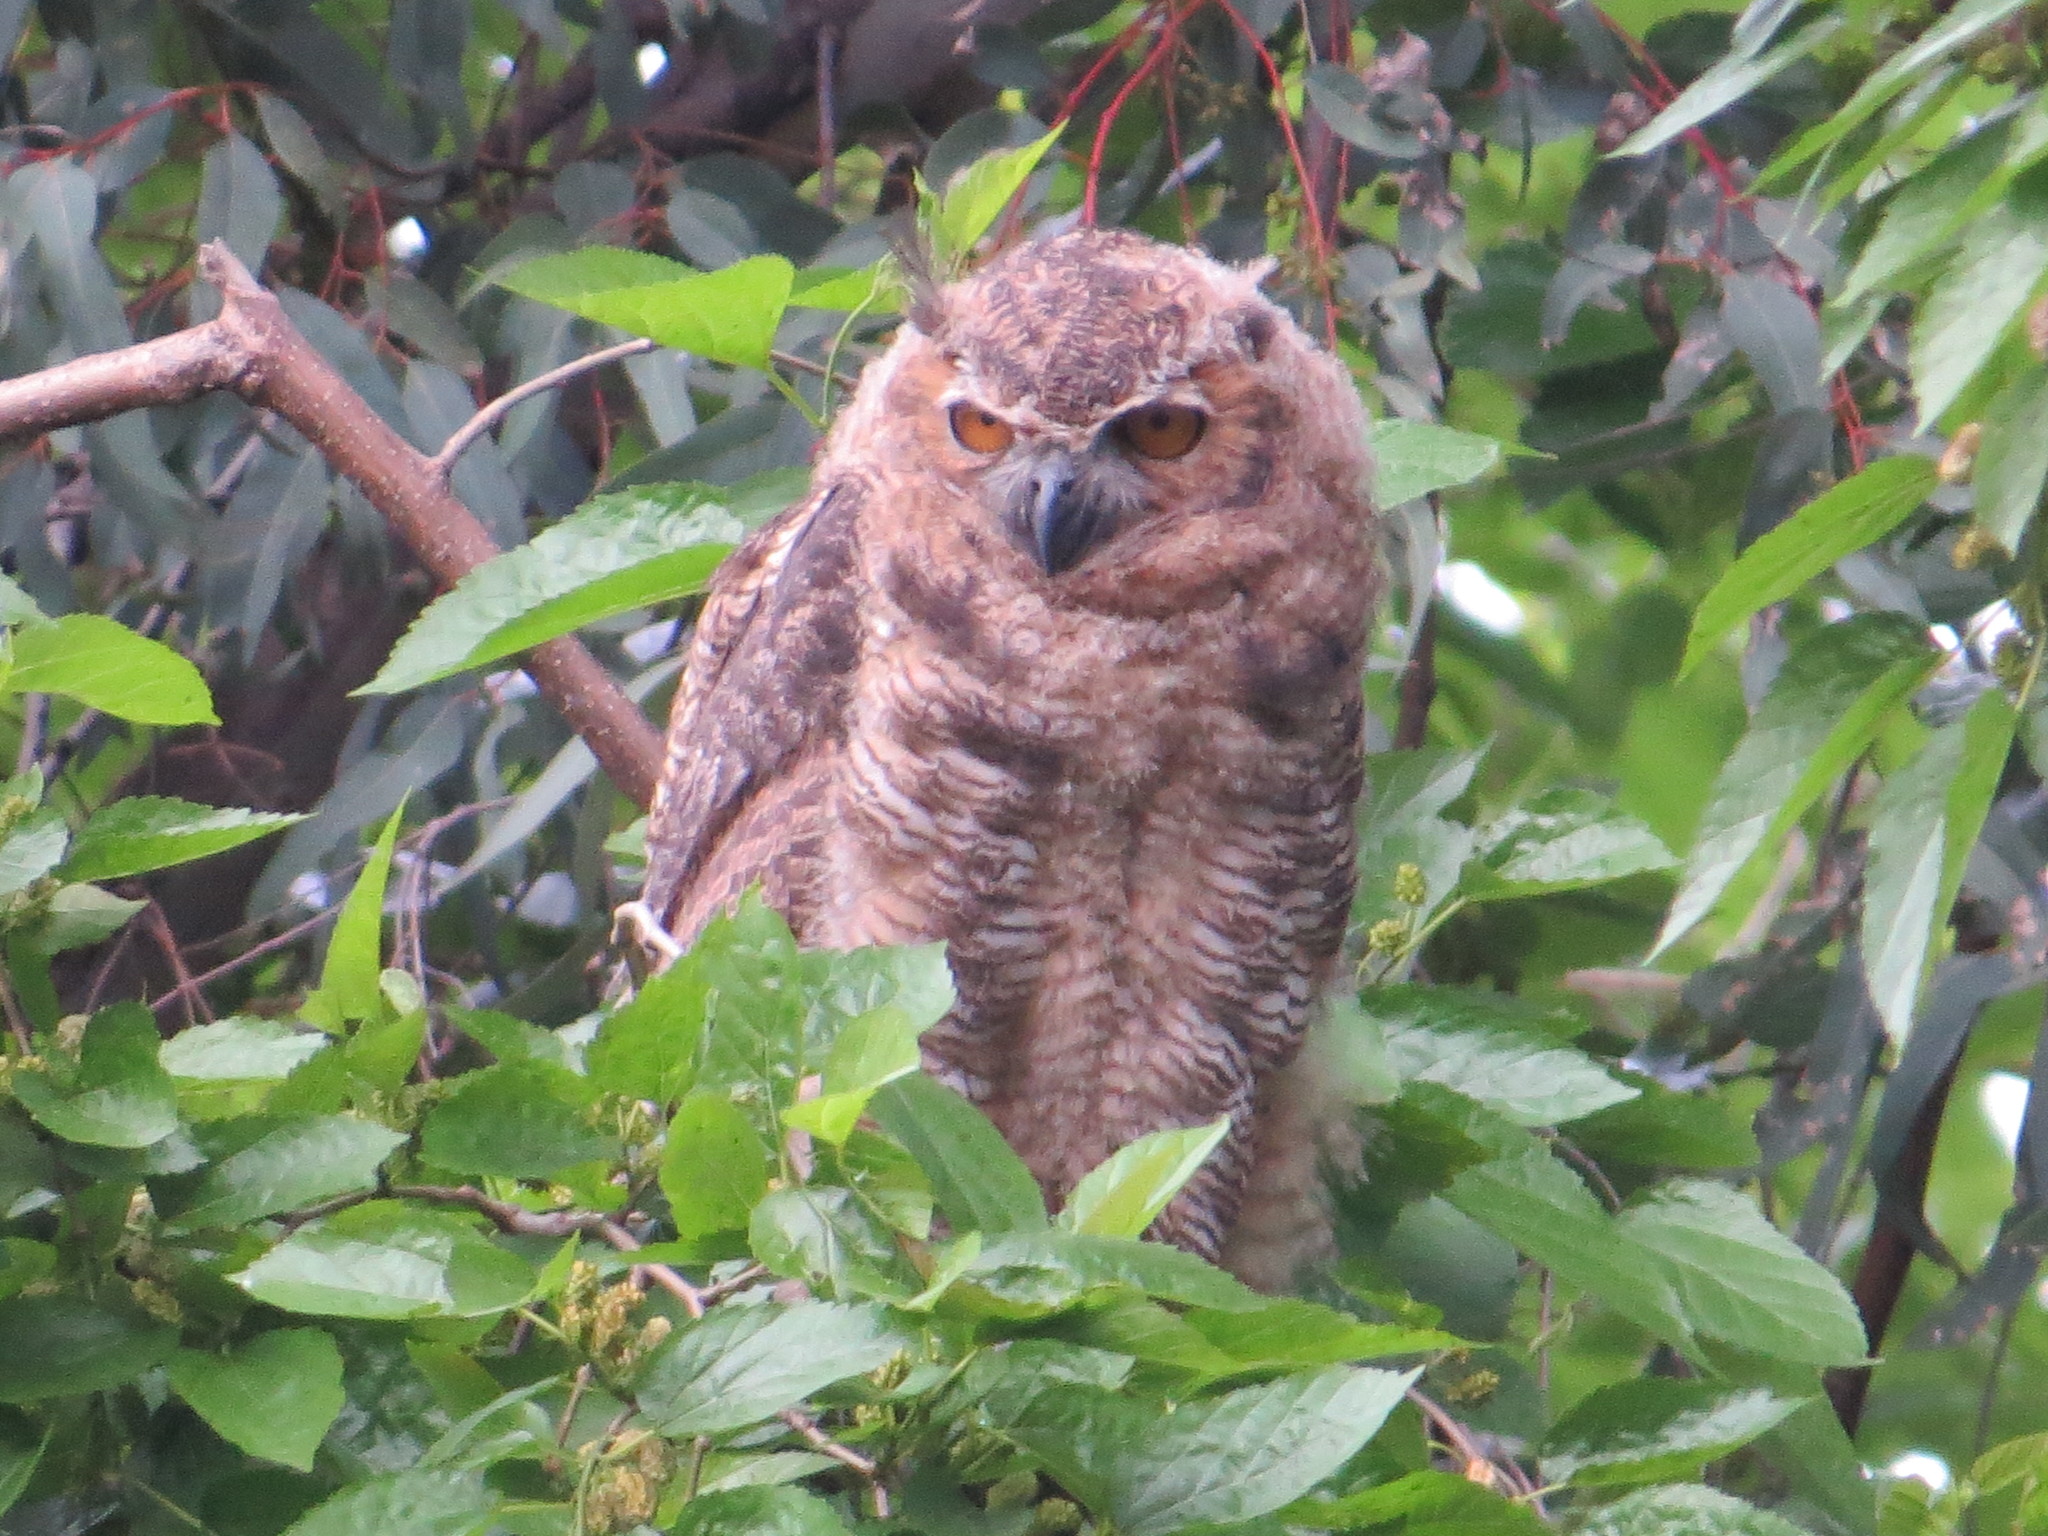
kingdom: Animalia
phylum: Chordata
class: Aves
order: Strigiformes
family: Strigidae
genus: Bubo
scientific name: Bubo virginianus
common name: Great horned owl
